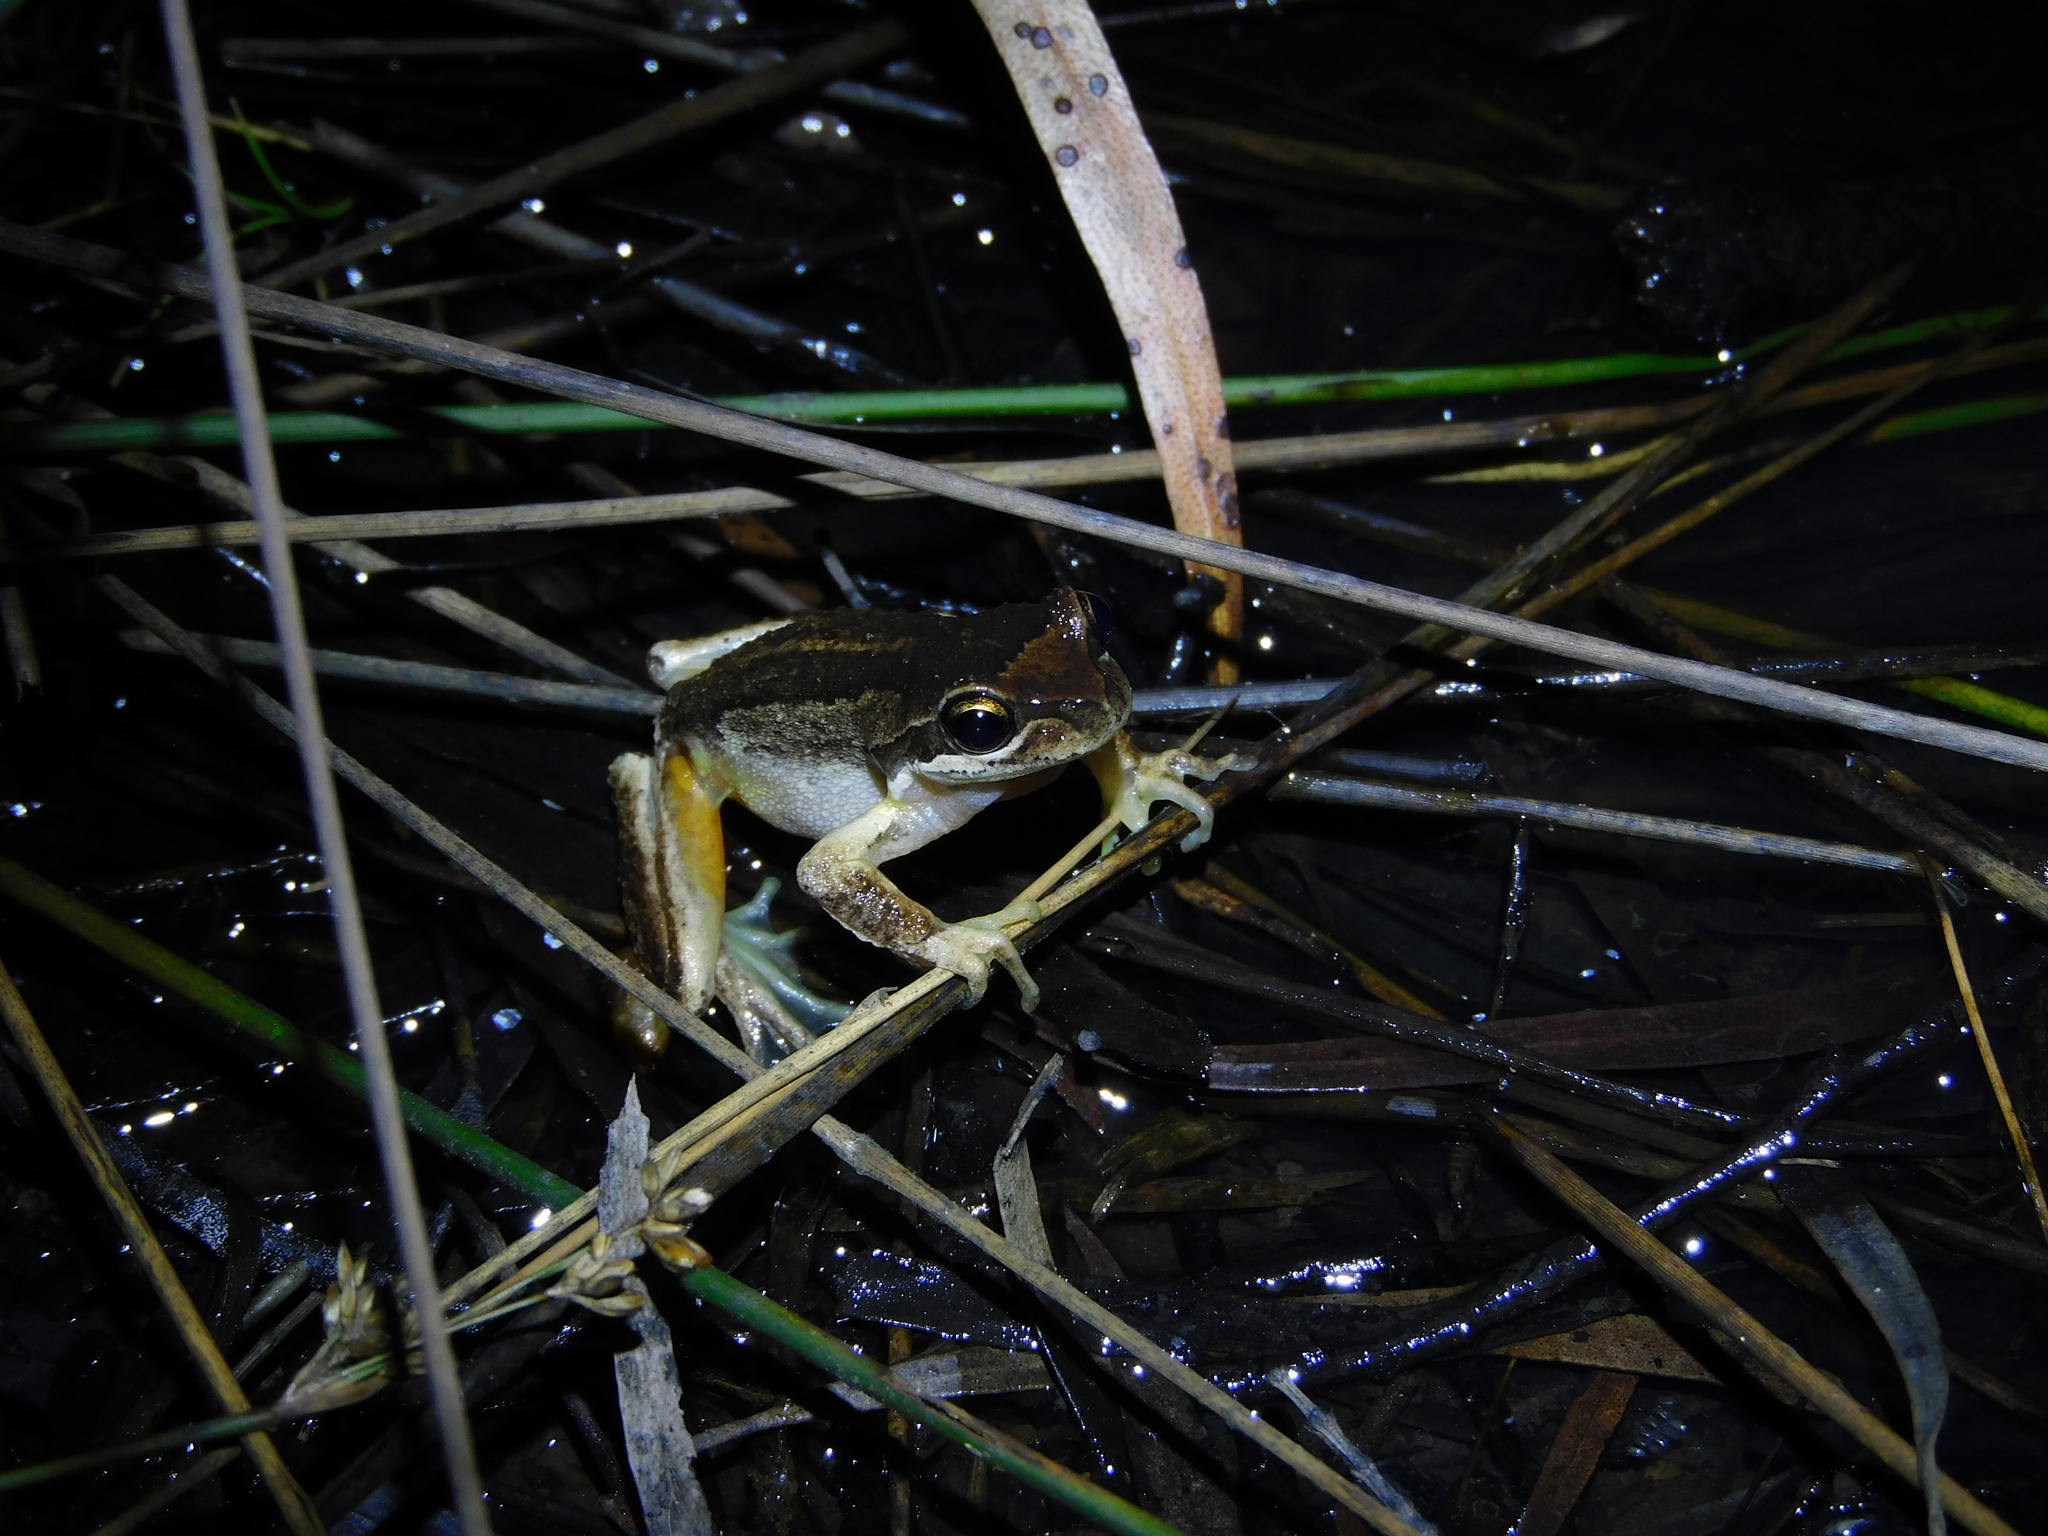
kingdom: Animalia
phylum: Chordata
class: Amphibia
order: Anura
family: Pelodryadidae
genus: Litoria
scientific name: Litoria ewingii
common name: Southern brown tree frog
